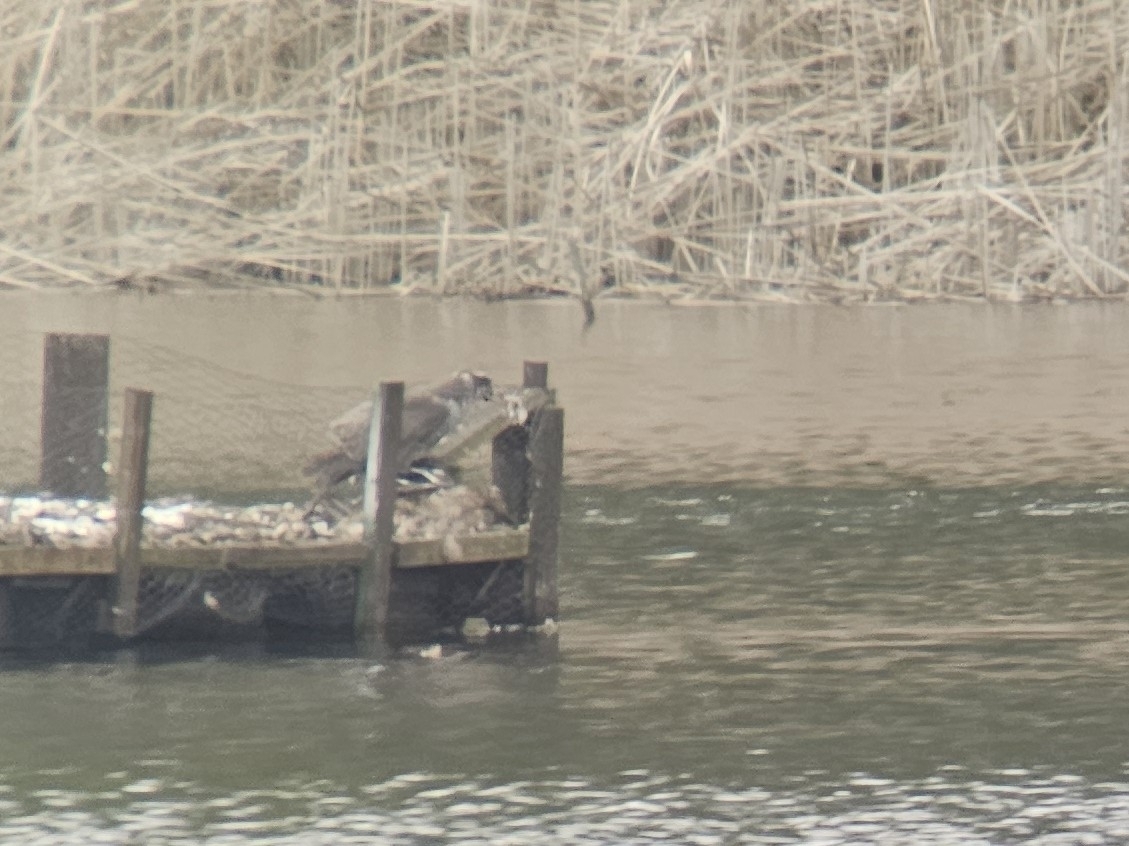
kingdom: Animalia
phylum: Chordata
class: Aves
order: Accipitriformes
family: Accipitridae
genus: Accipiter
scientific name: Accipiter gentilis
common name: Northern goshawk
